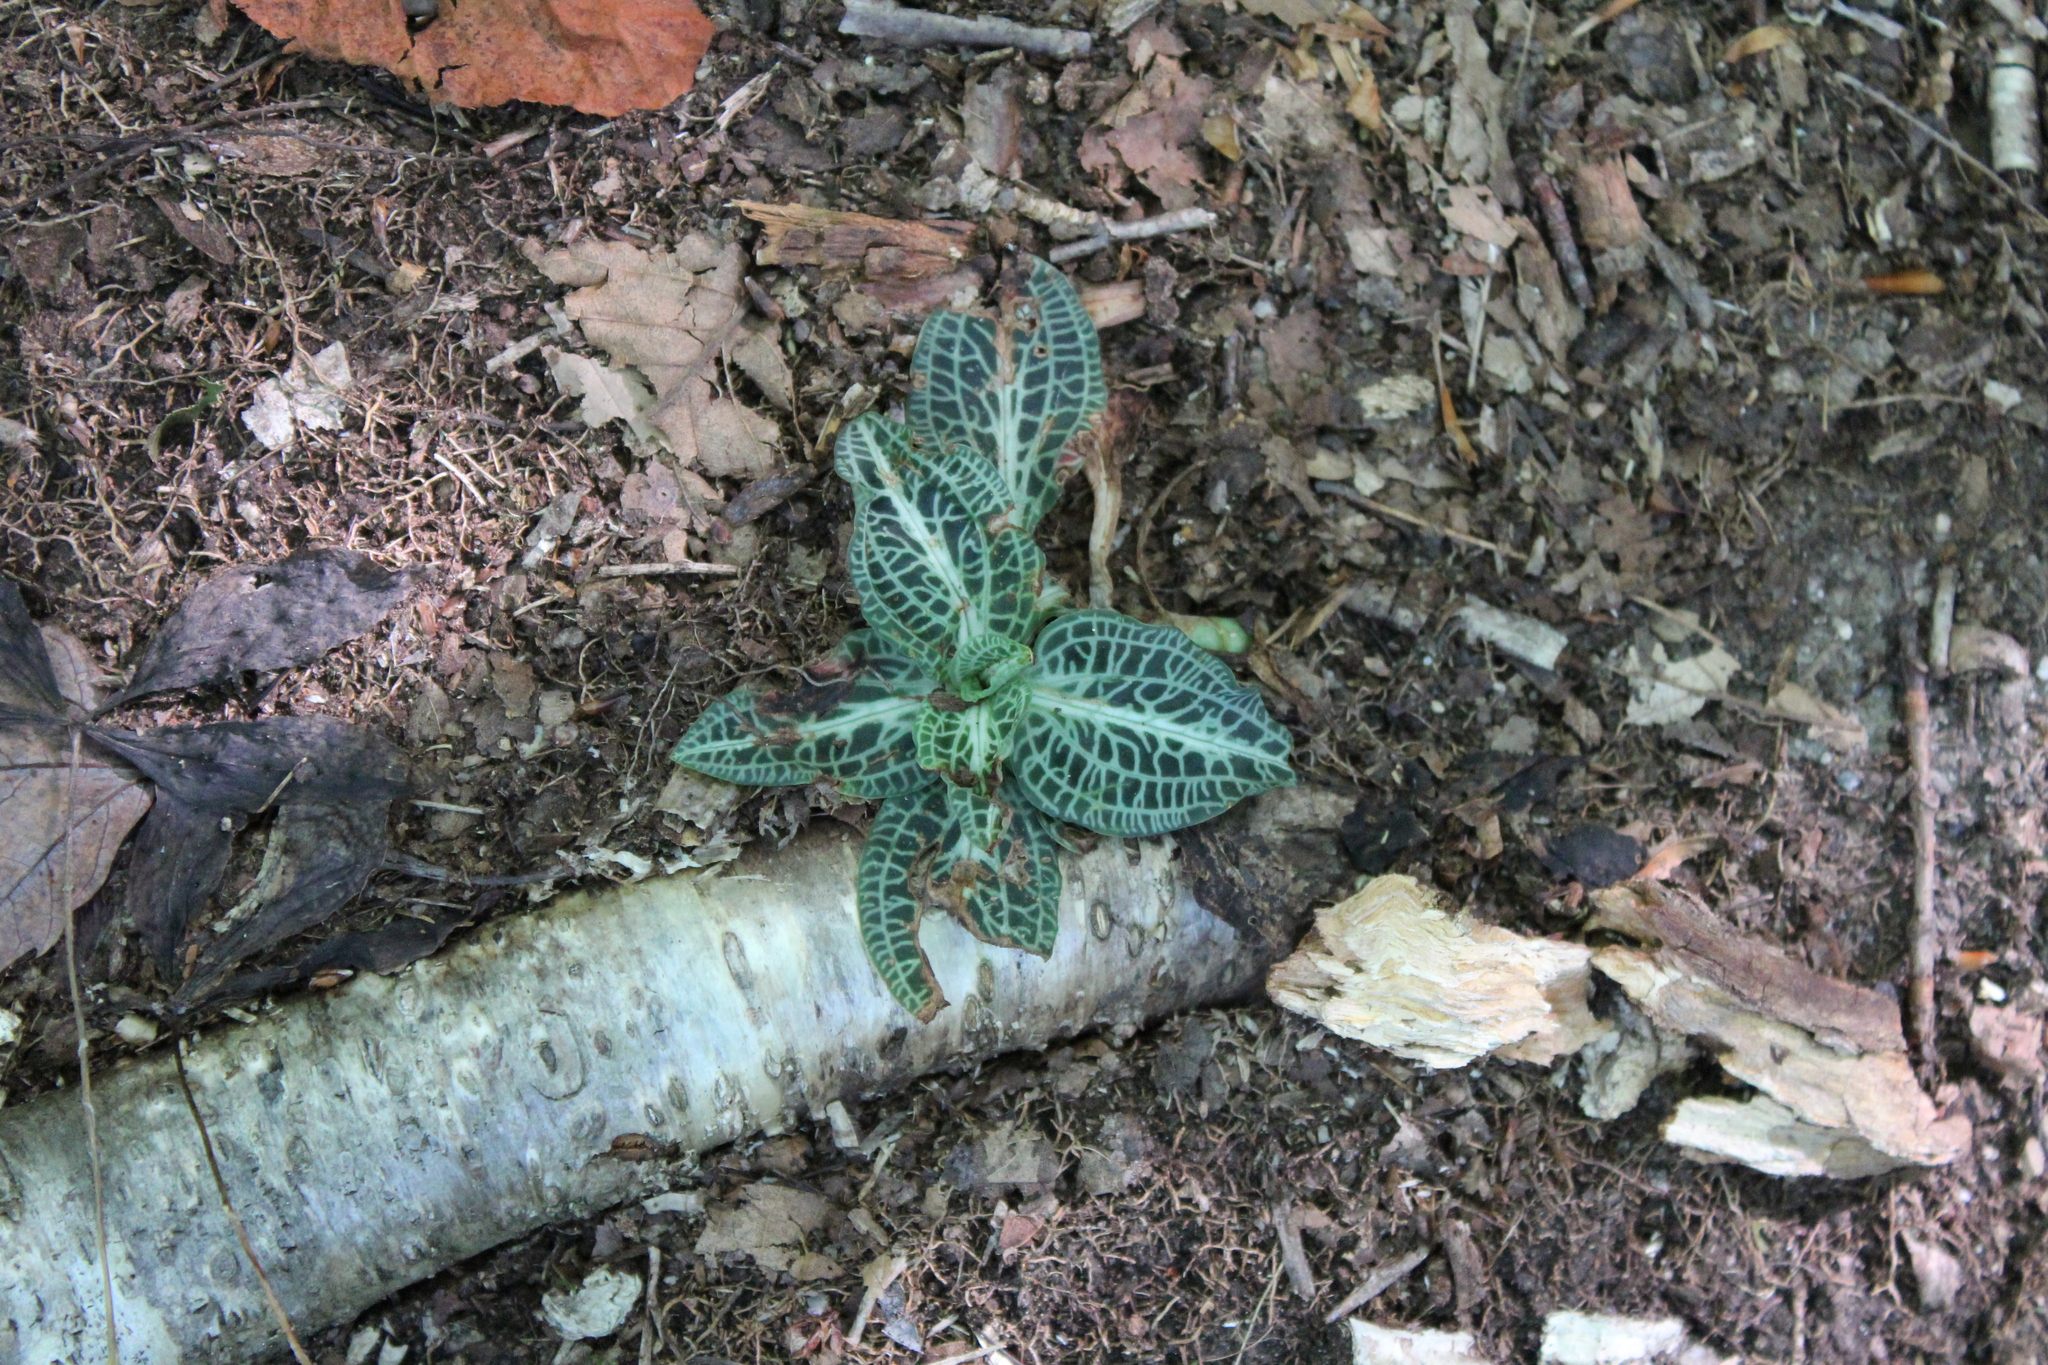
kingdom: Plantae
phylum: Tracheophyta
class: Liliopsida
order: Asparagales
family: Orchidaceae
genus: Goodyera
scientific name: Goodyera pubescens
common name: Downy rattlesnake-plantain
